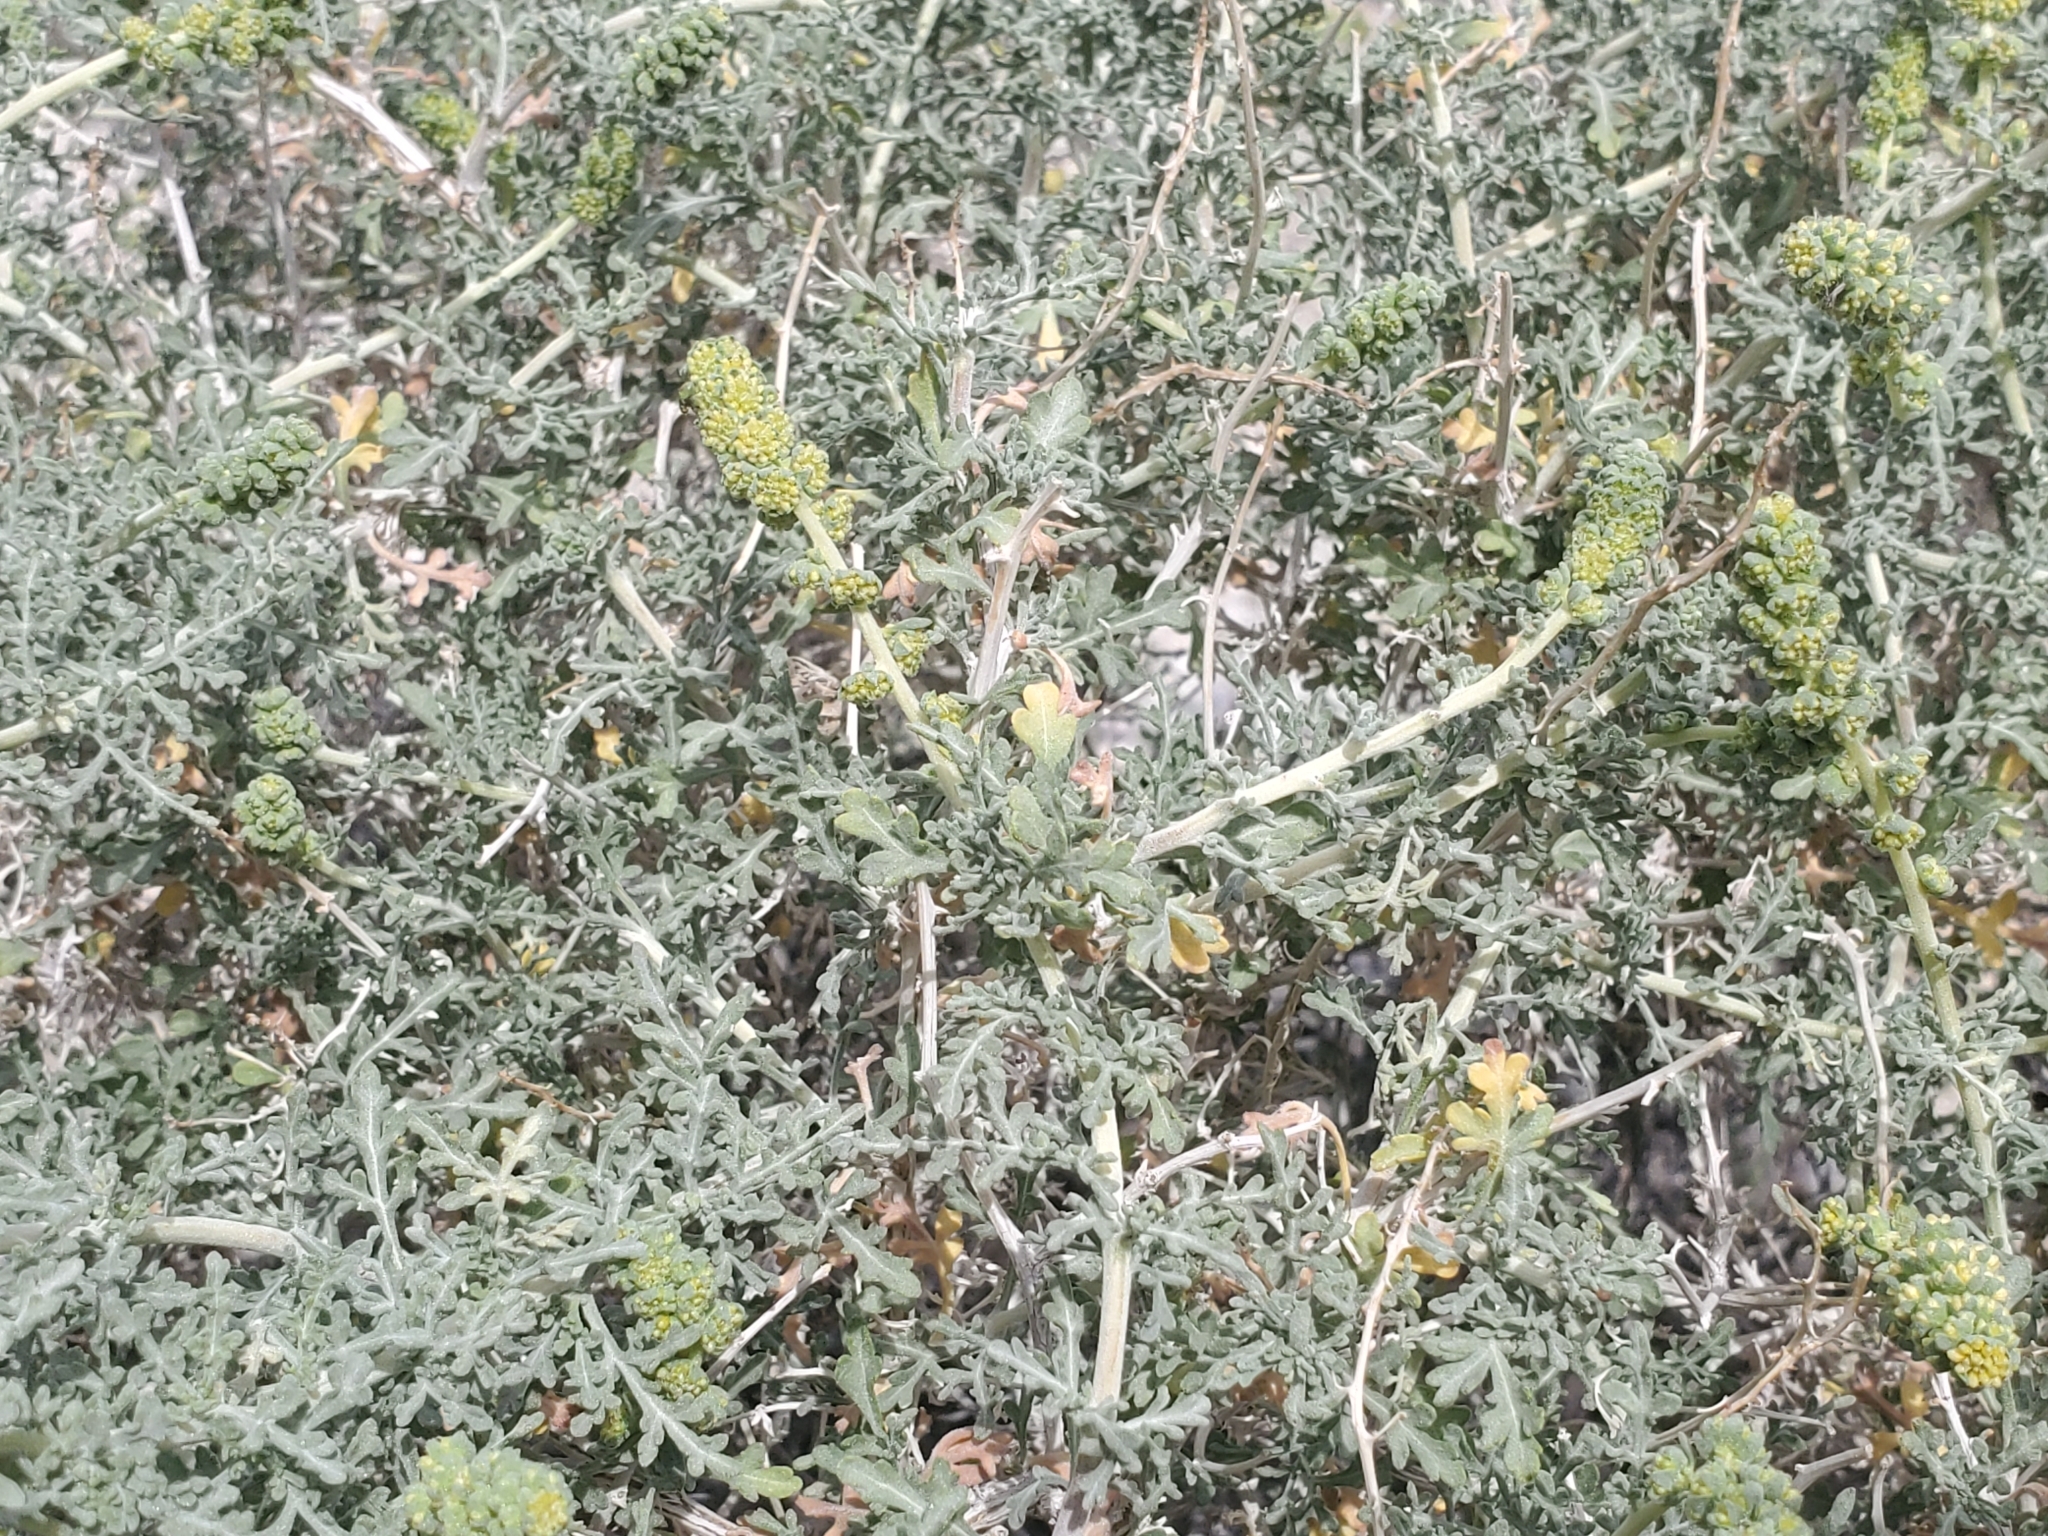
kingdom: Plantae
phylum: Tracheophyta
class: Magnoliopsida
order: Asterales
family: Asteraceae
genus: Ambrosia
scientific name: Ambrosia dumosa
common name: Bur-sage
